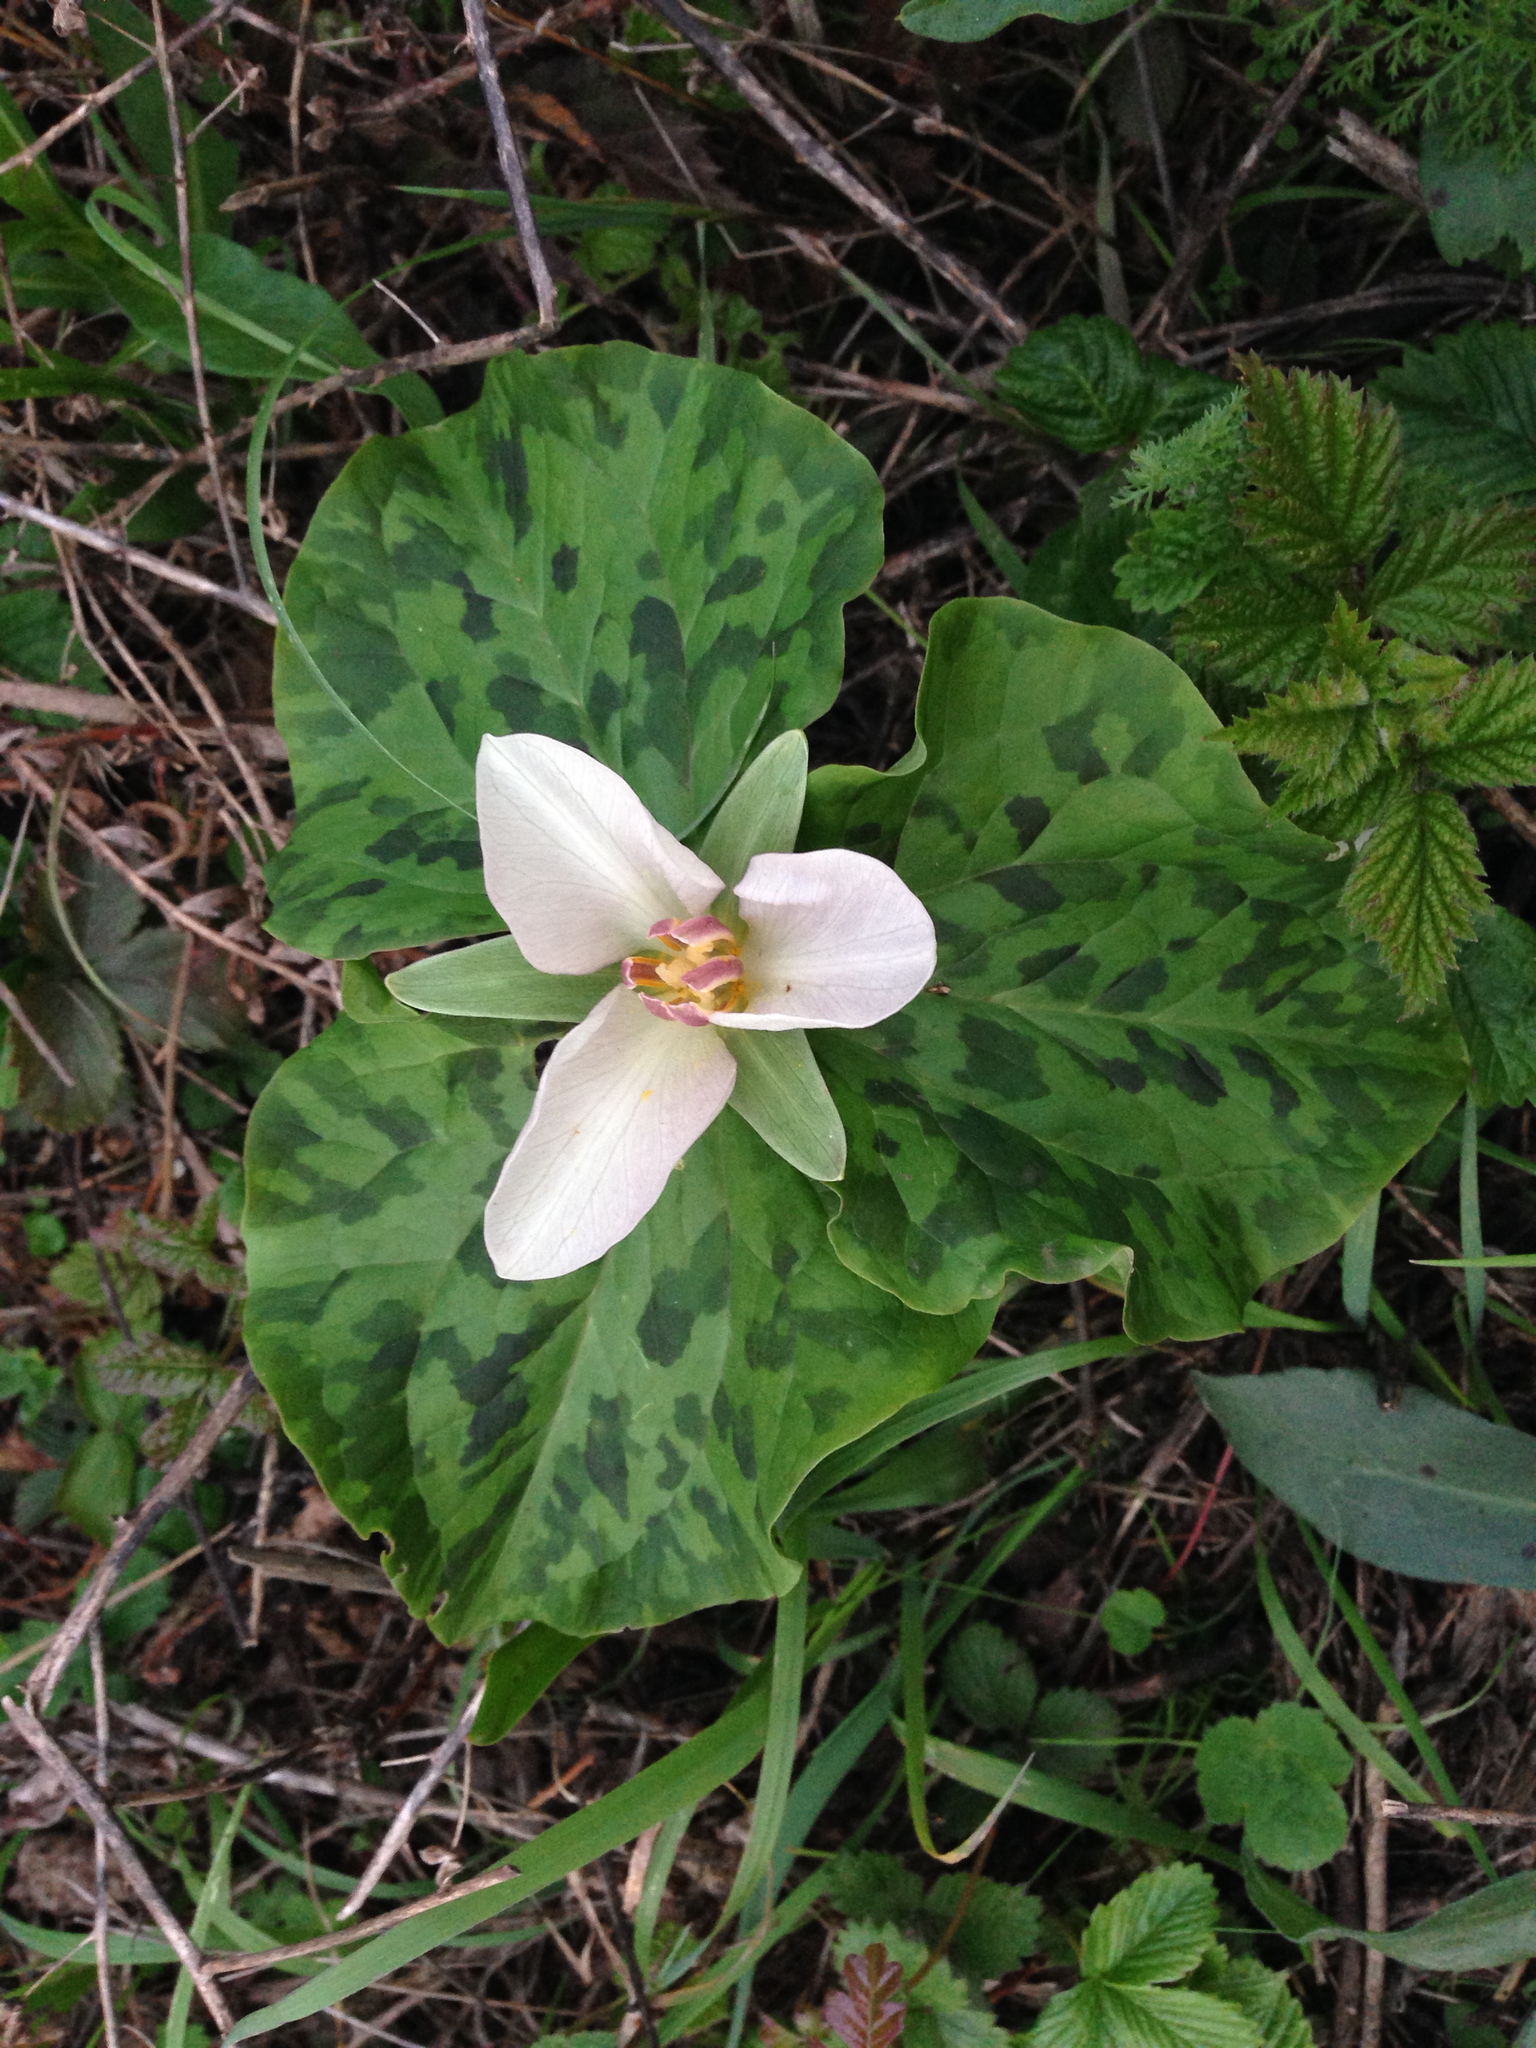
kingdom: Plantae
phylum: Tracheophyta
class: Liliopsida
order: Liliales
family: Melanthiaceae
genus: Trillium
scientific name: Trillium chloropetalum
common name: Giant trillium
